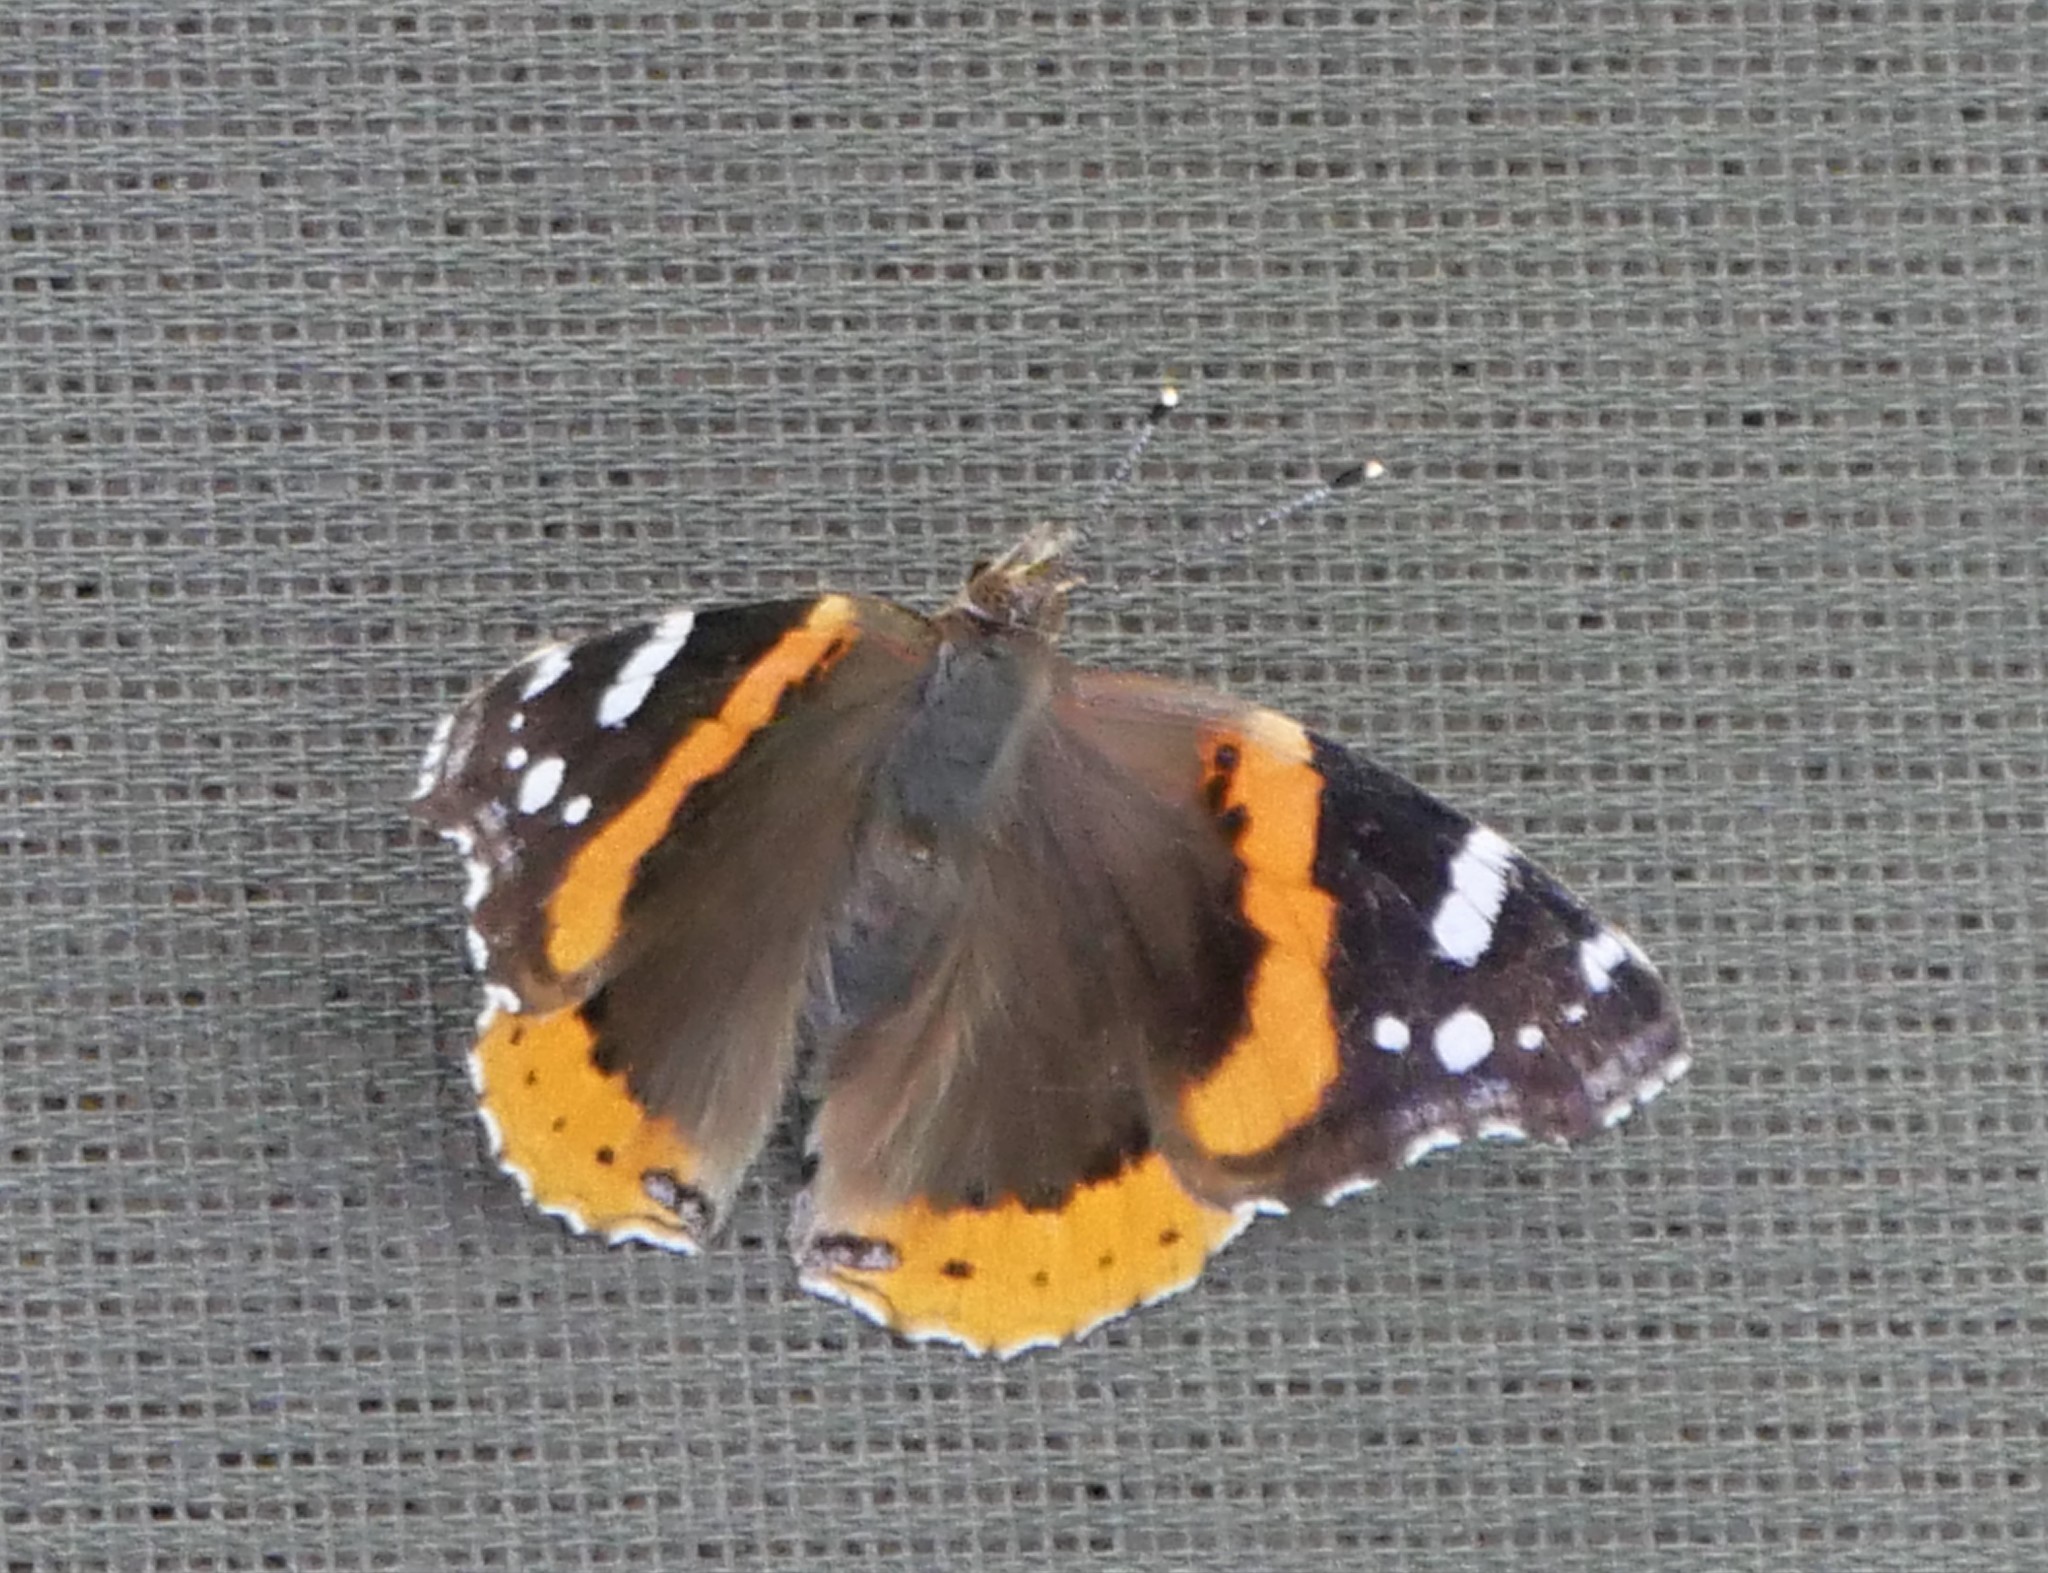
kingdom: Animalia
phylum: Arthropoda
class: Insecta
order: Lepidoptera
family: Nymphalidae
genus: Vanessa
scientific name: Vanessa atalanta
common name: Red admiral
